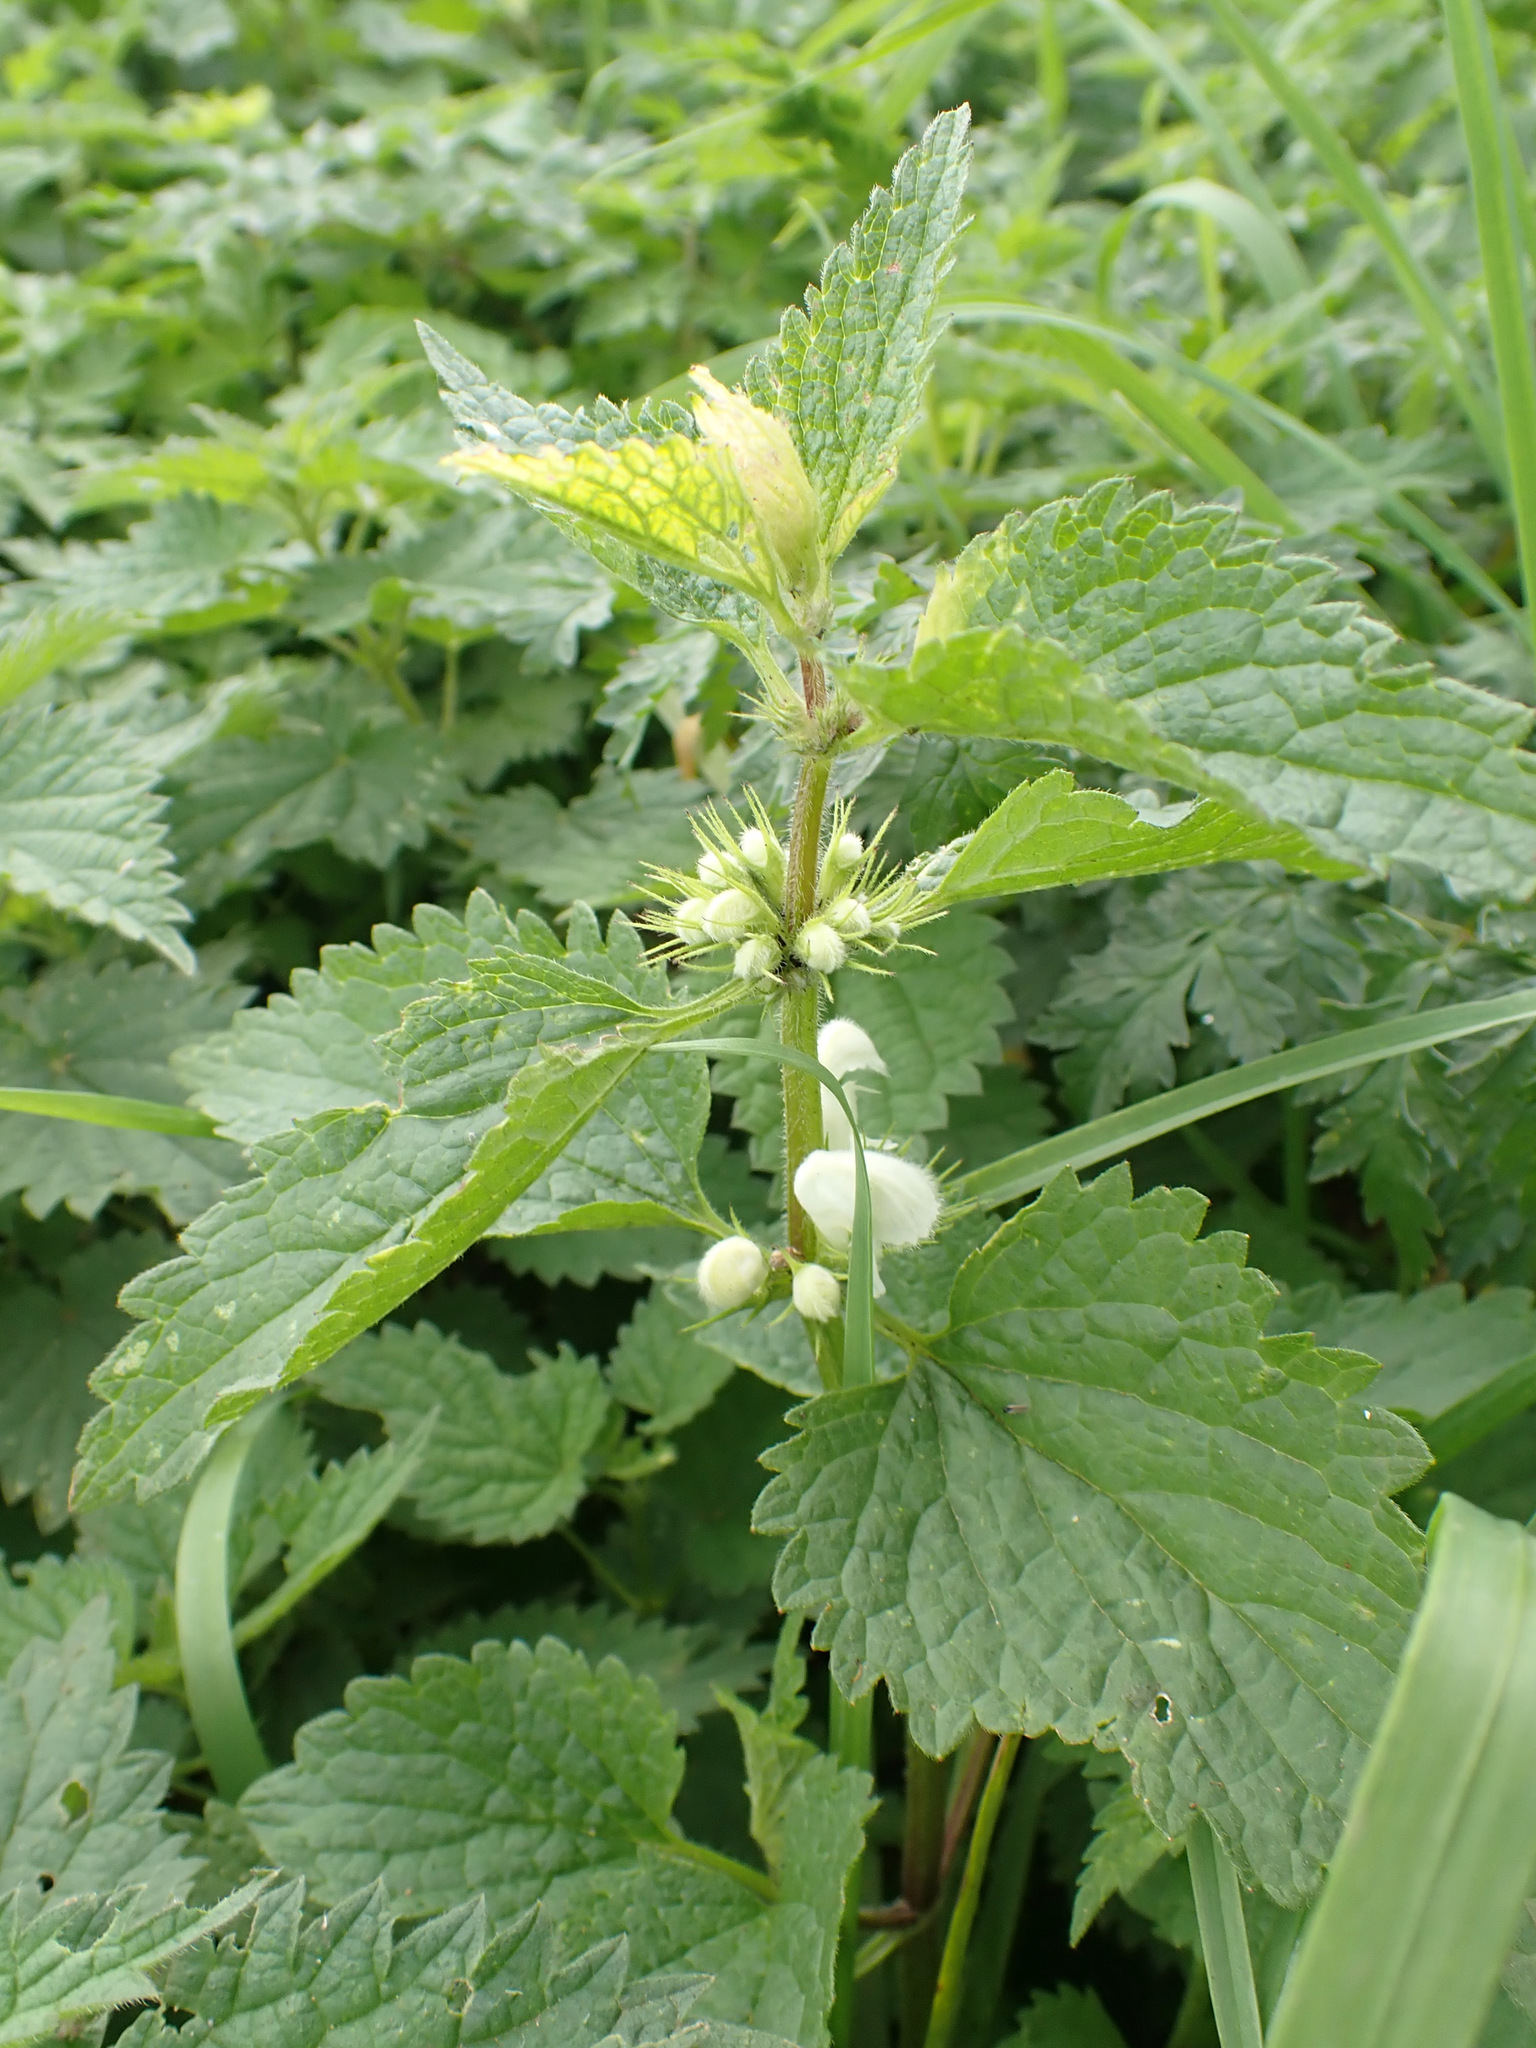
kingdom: Plantae
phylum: Tracheophyta
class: Magnoliopsida
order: Lamiales
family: Lamiaceae
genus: Lamium
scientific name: Lamium album
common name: White dead-nettle
